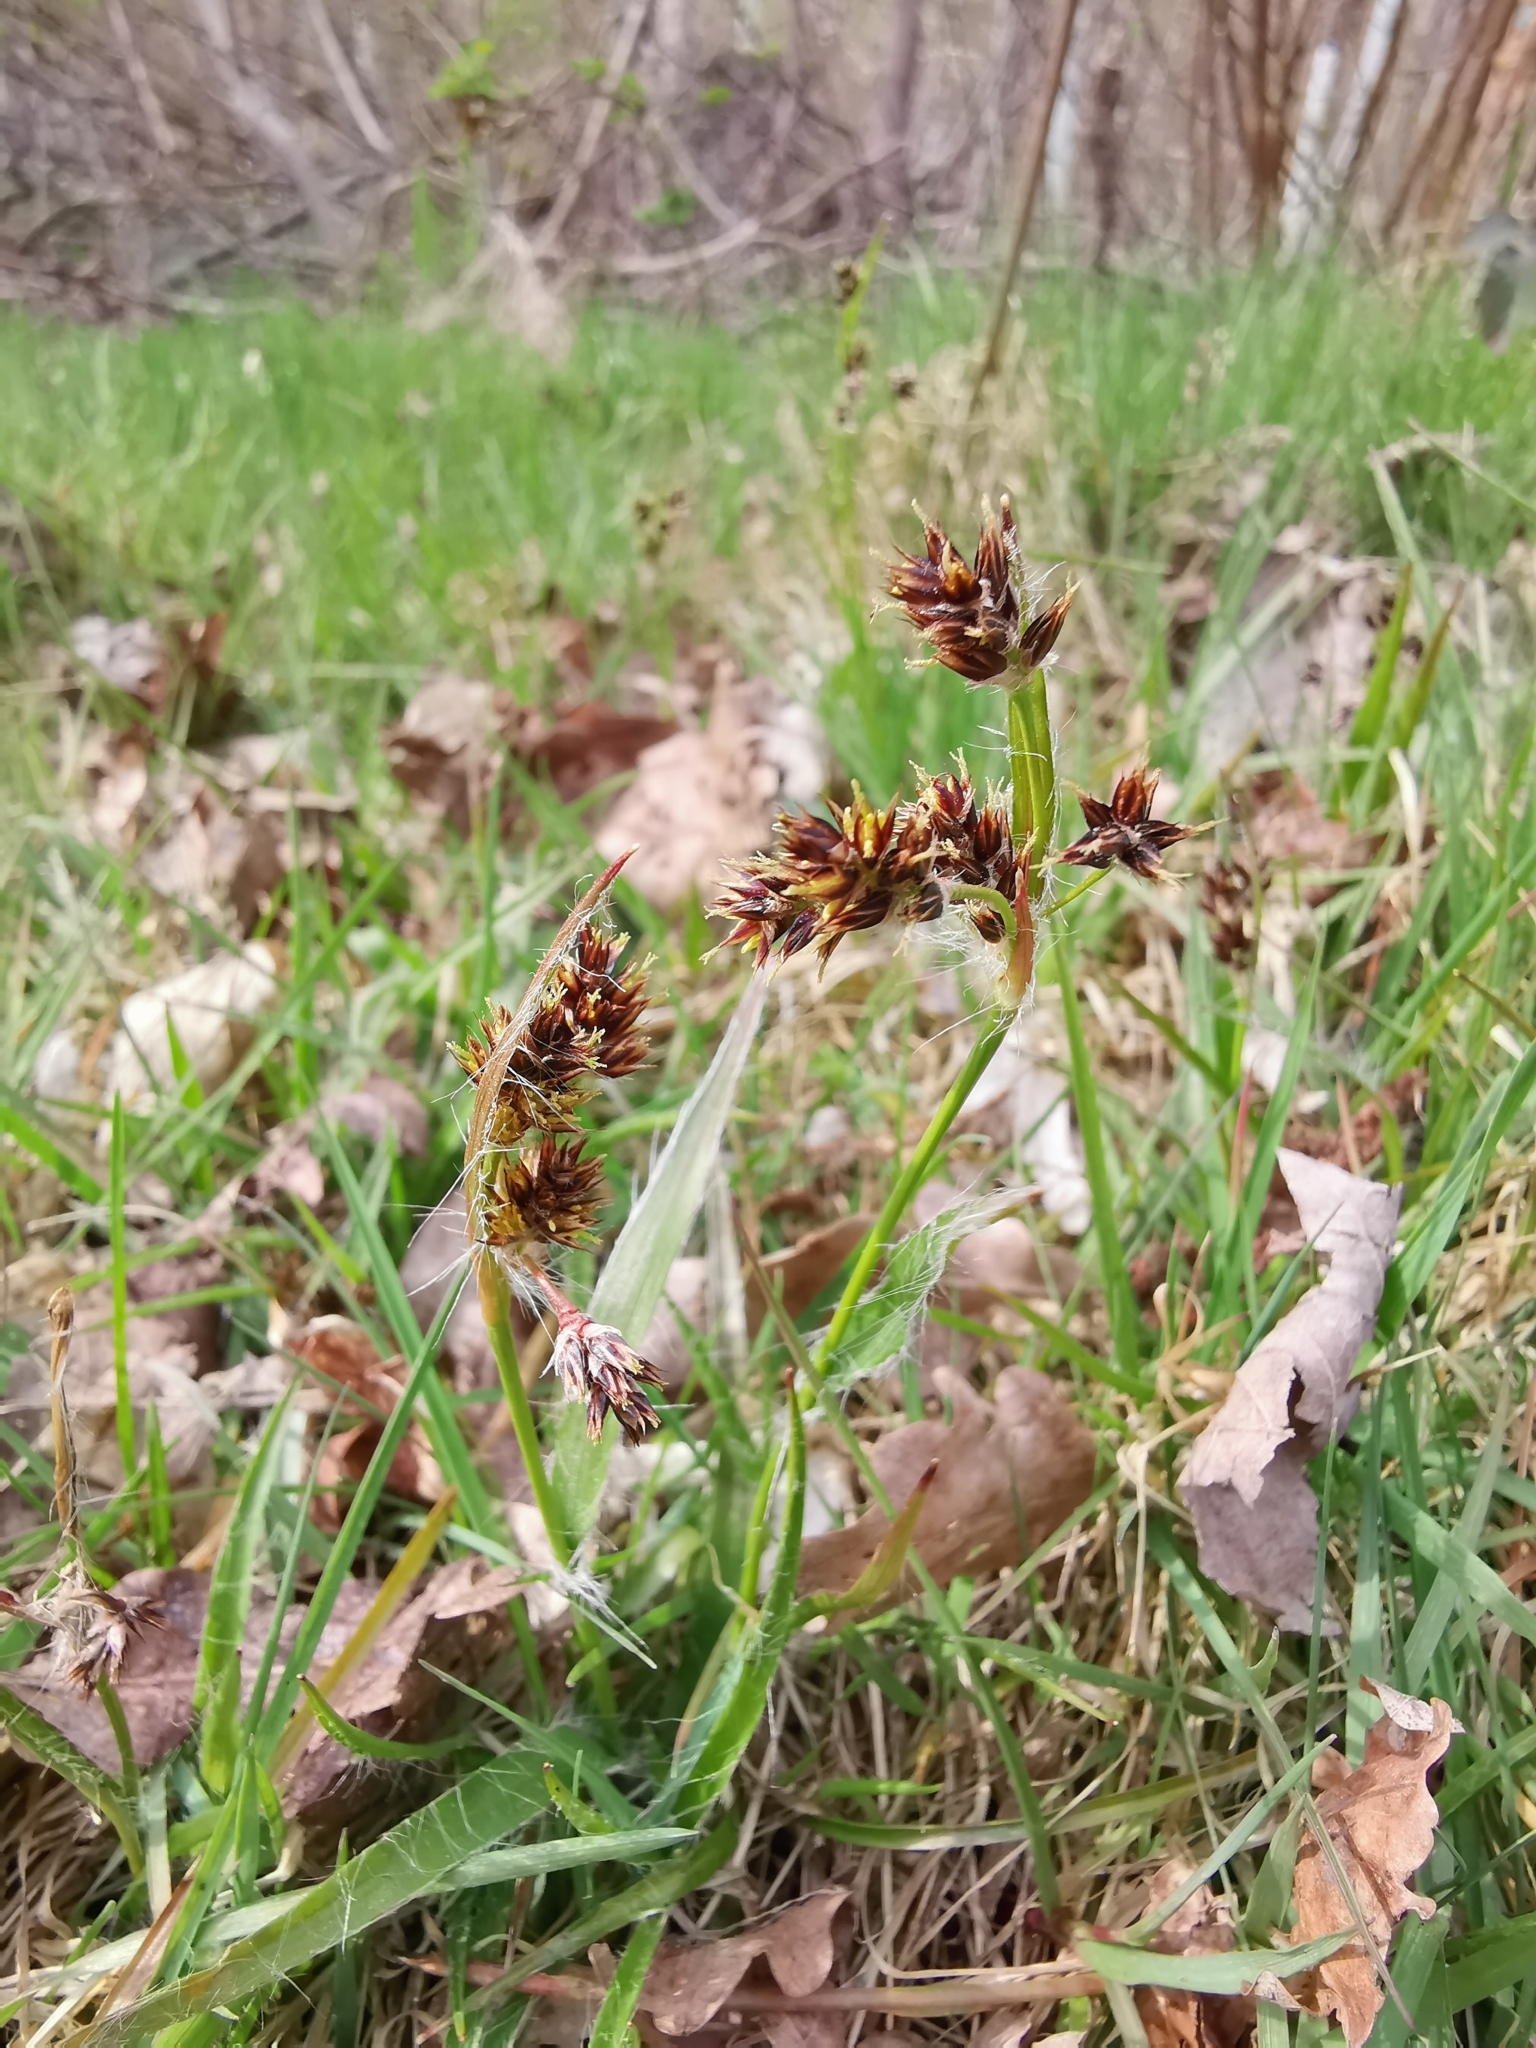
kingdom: Plantae
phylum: Tracheophyta
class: Liliopsida
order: Poales
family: Juncaceae
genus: Luzula
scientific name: Luzula campestris
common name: Field wood-rush
